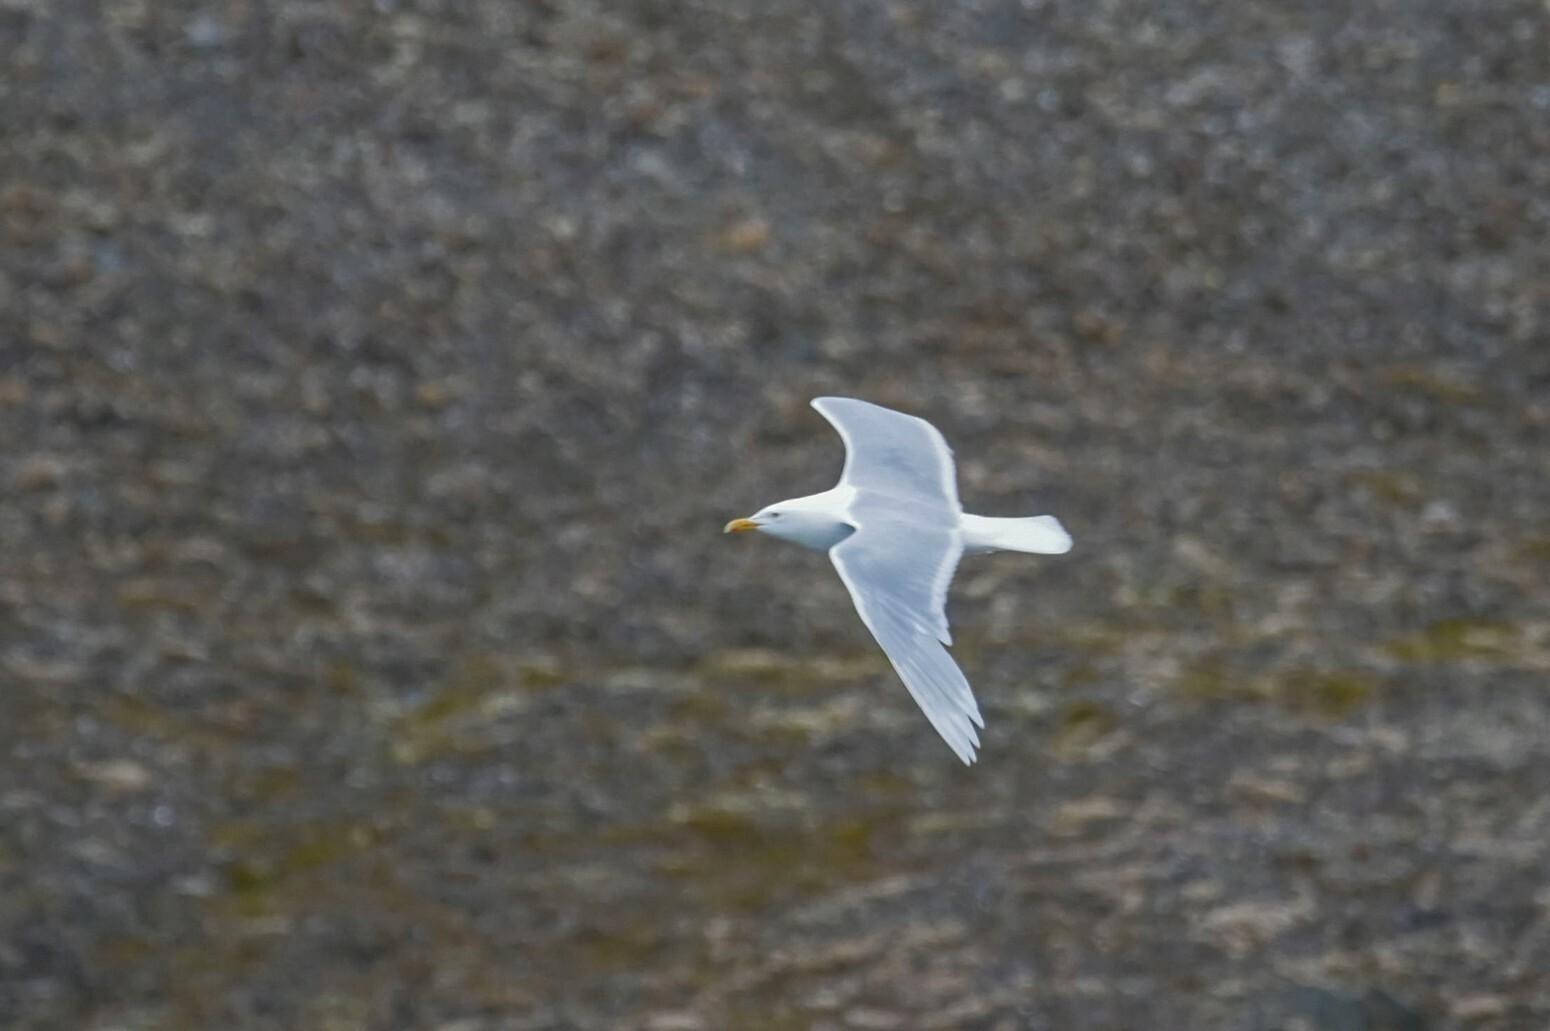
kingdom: Animalia
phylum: Chordata
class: Aves
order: Charadriiformes
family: Laridae
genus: Larus
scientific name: Larus hyperboreus
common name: Glaucous gull
